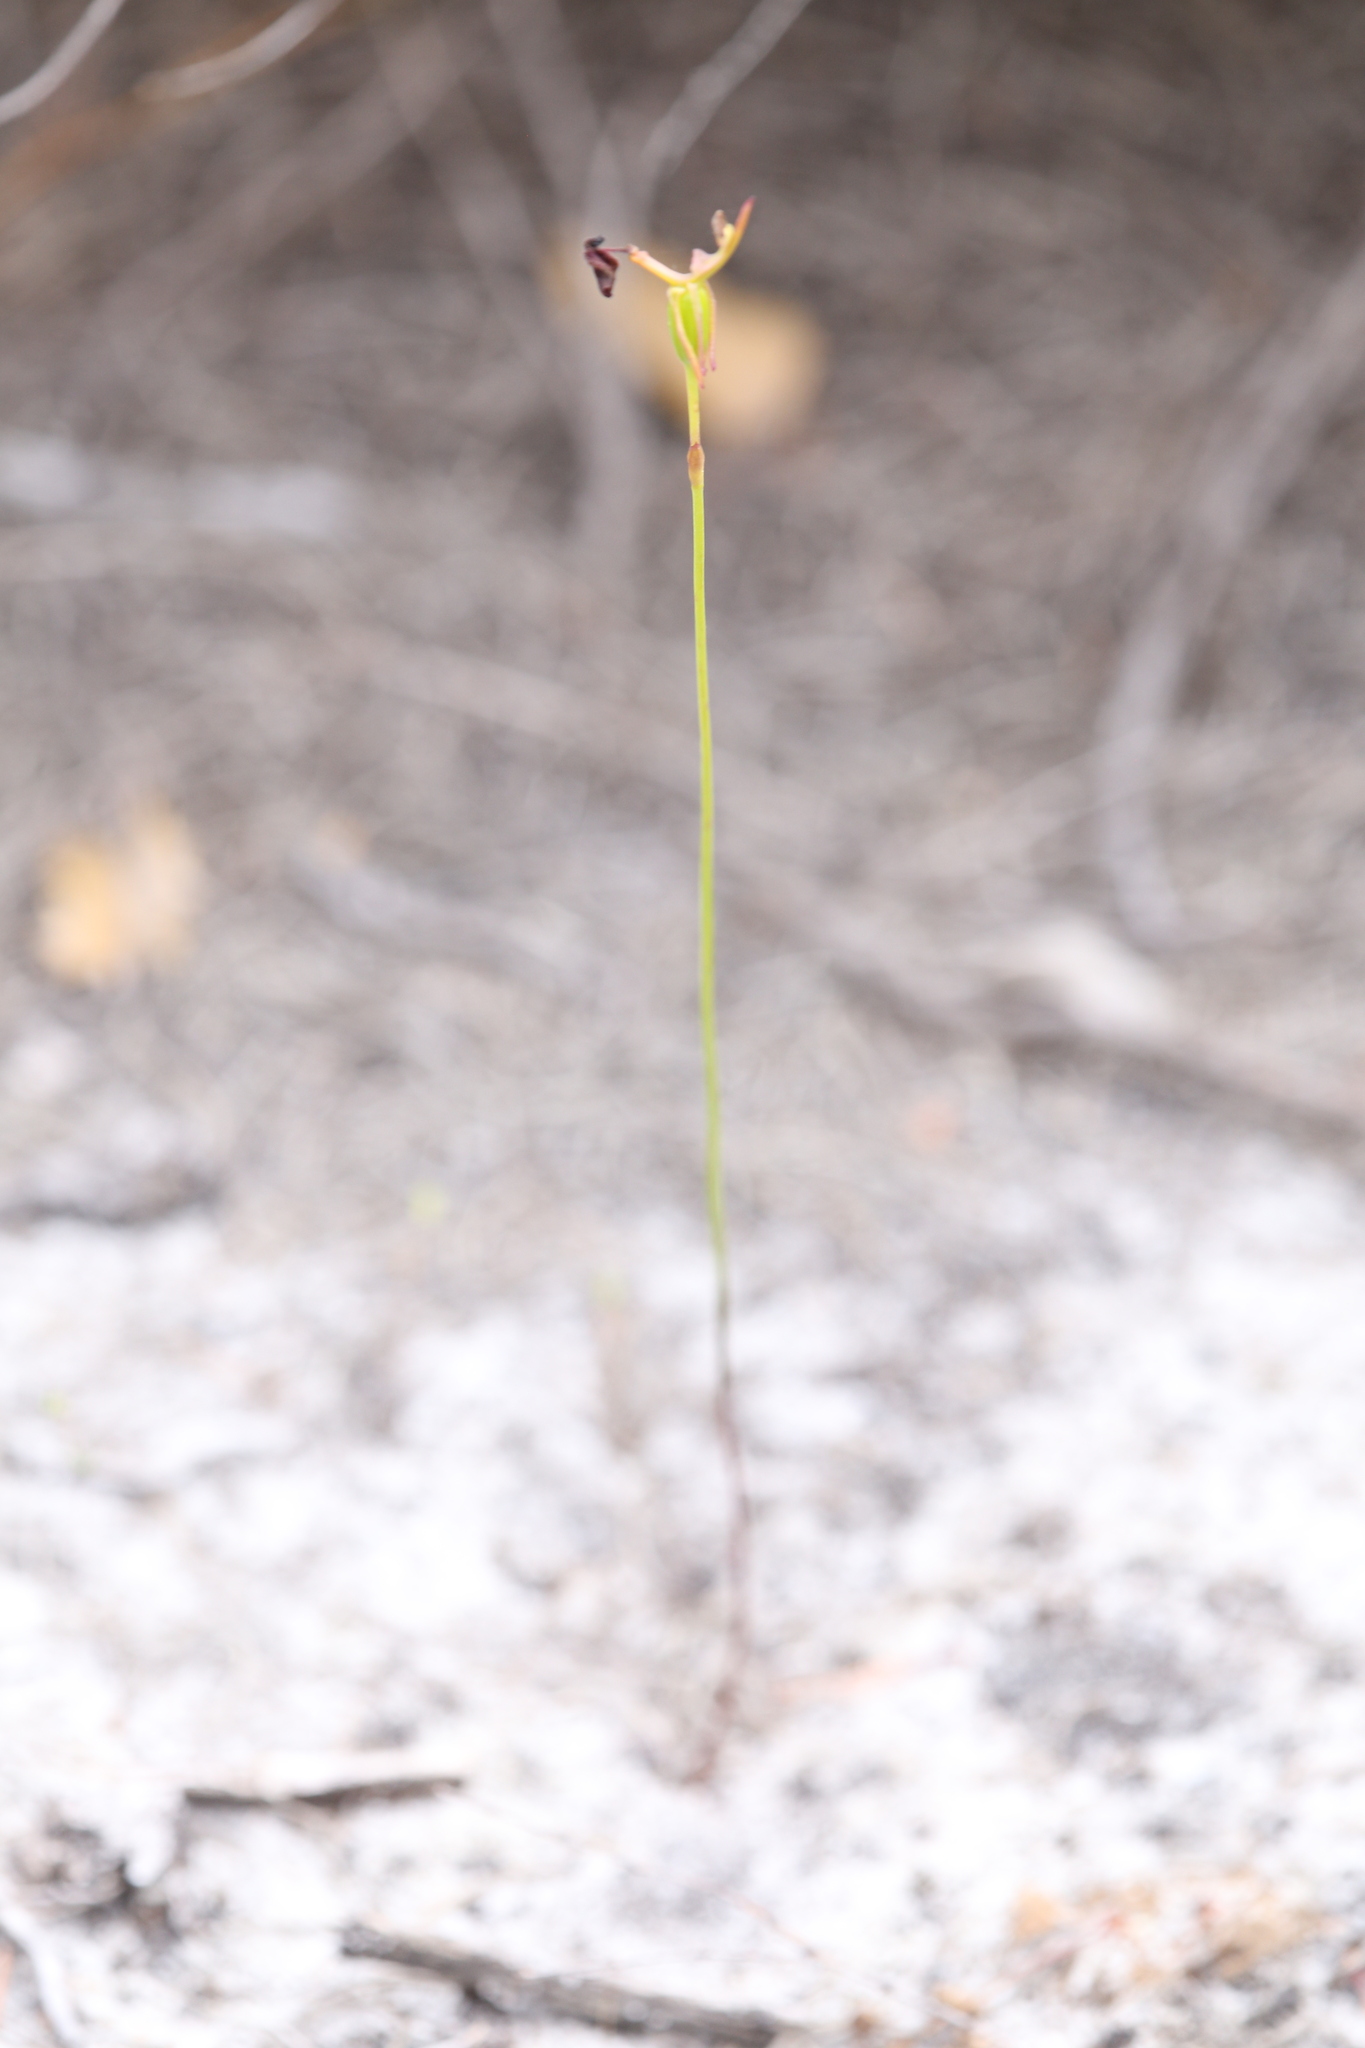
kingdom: Plantae
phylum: Tracheophyta
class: Liliopsida
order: Asparagales
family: Orchidaceae
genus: Drakaea
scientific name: Drakaea glyptodon
